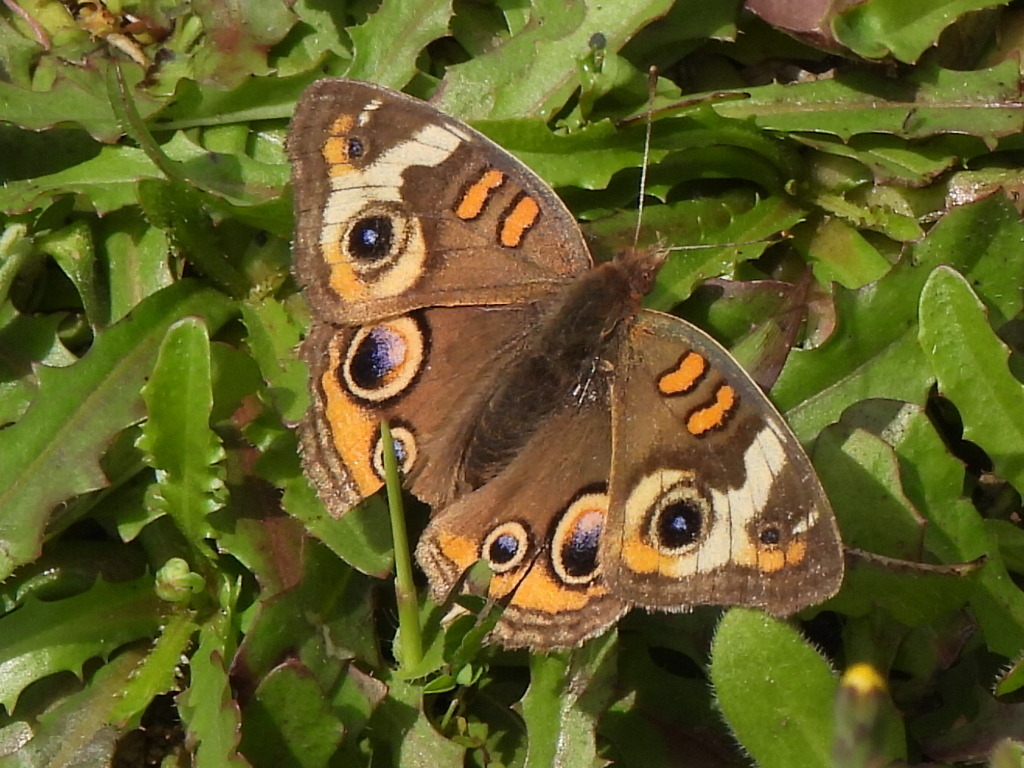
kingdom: Animalia
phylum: Arthropoda
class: Insecta
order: Lepidoptera
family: Nymphalidae
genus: Junonia
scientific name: Junonia coenia
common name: Common buckeye
